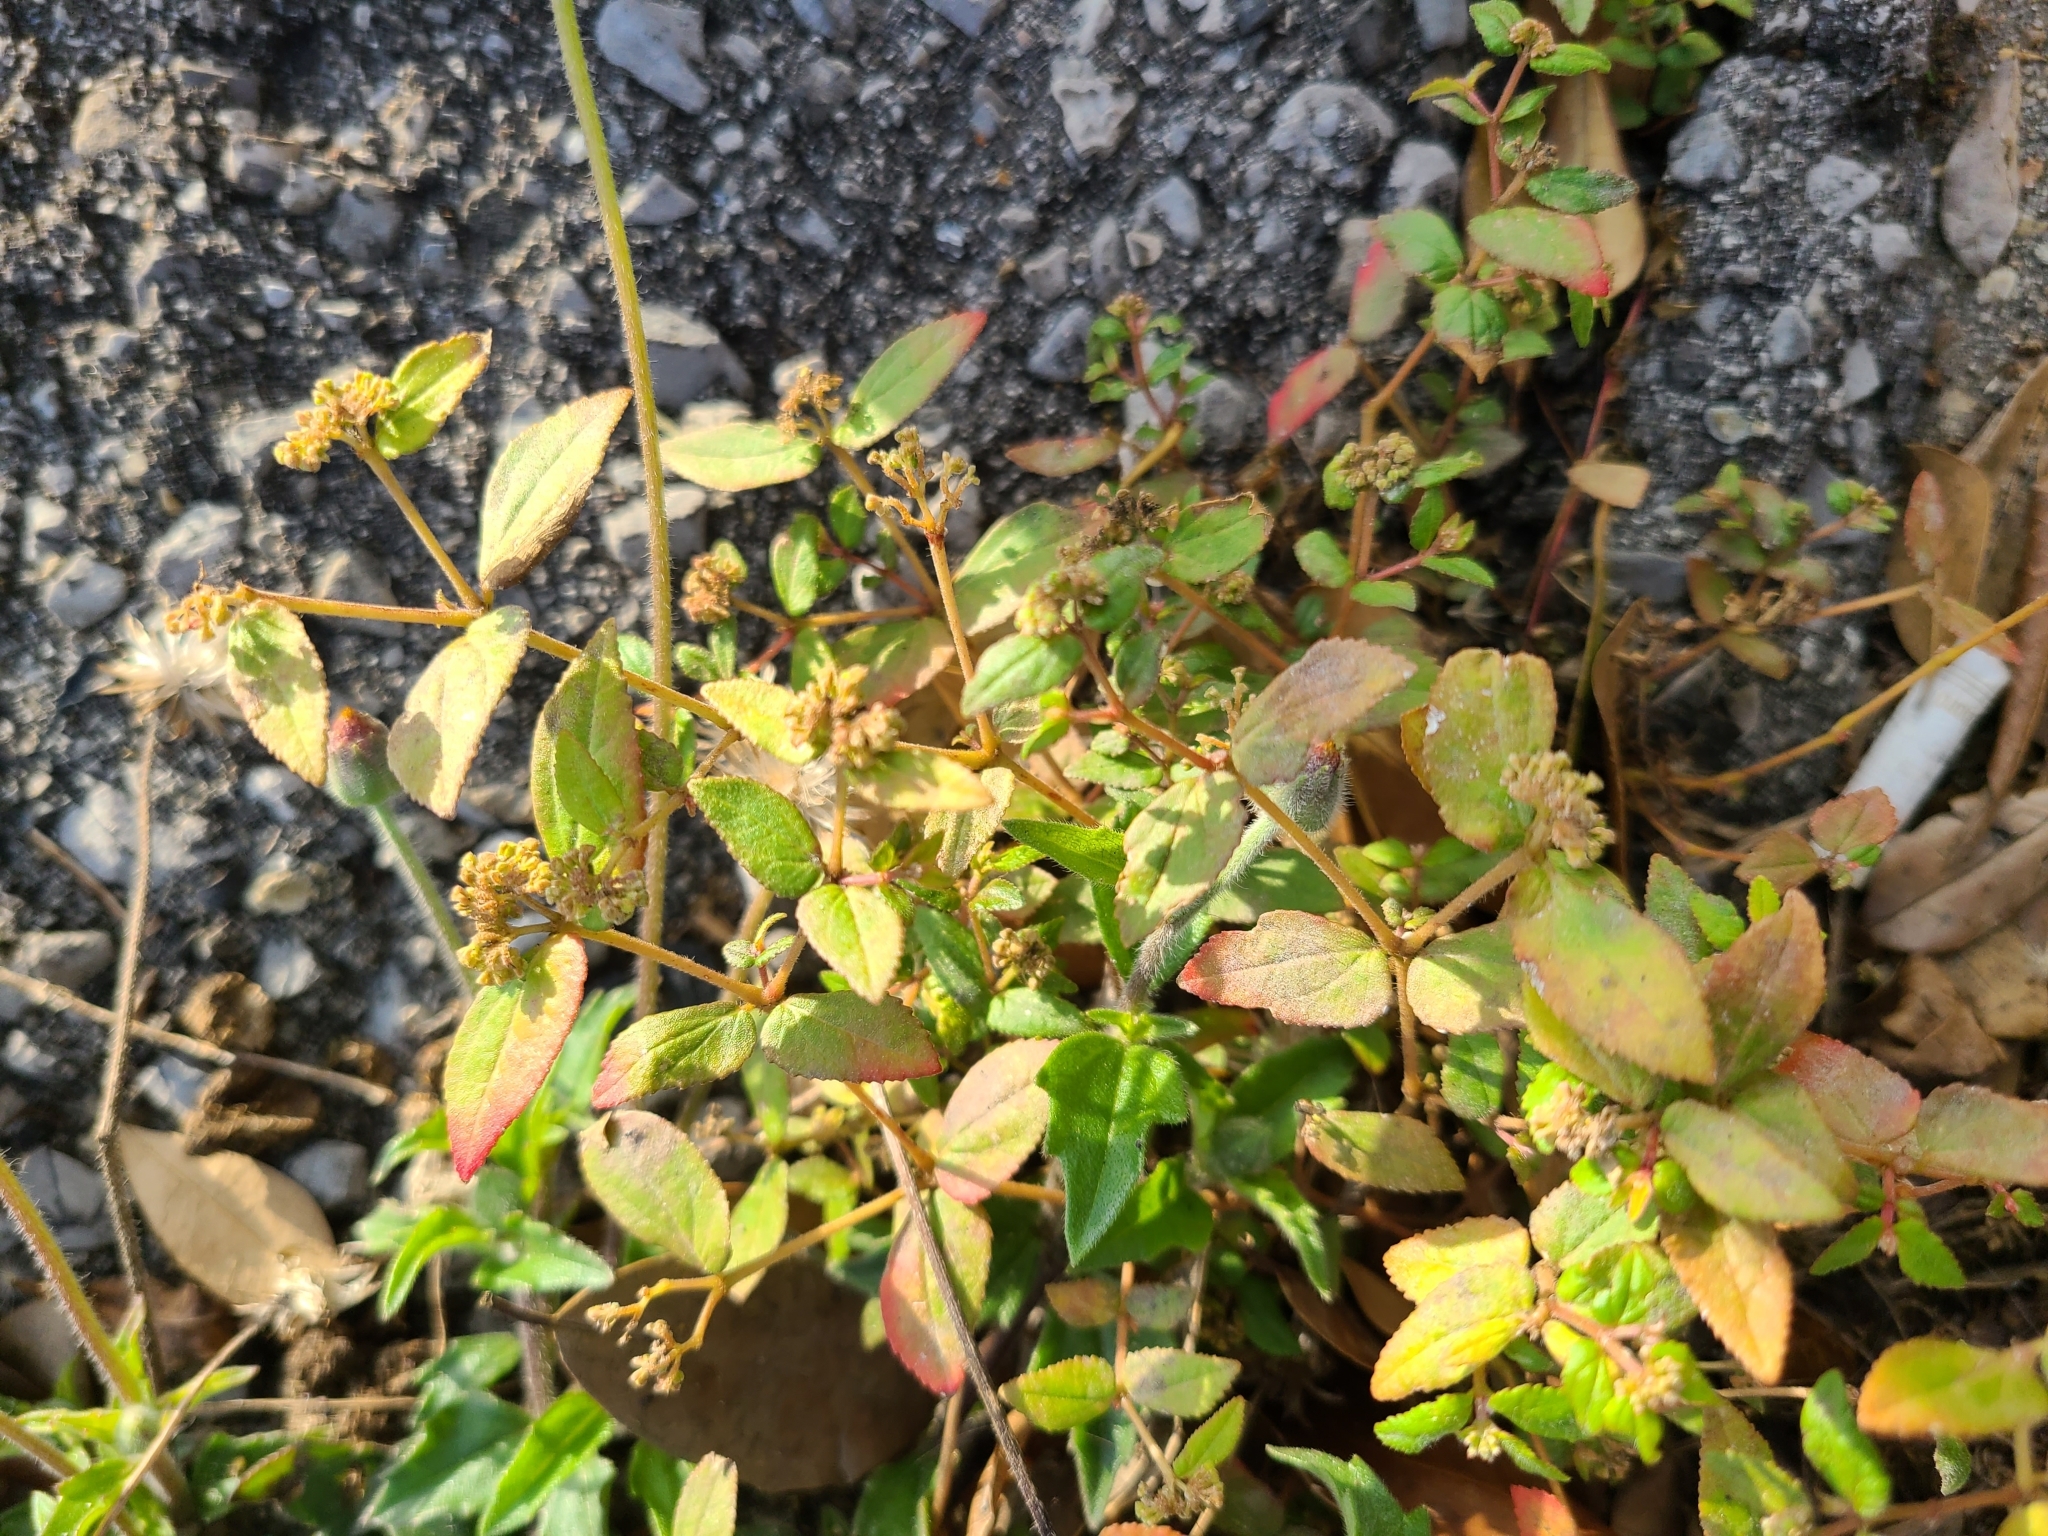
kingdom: Plantae
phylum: Tracheophyta
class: Magnoliopsida
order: Malpighiales
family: Euphorbiaceae
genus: Euphorbia
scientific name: Euphorbia ophthalmica
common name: Florida hammock sandmat
